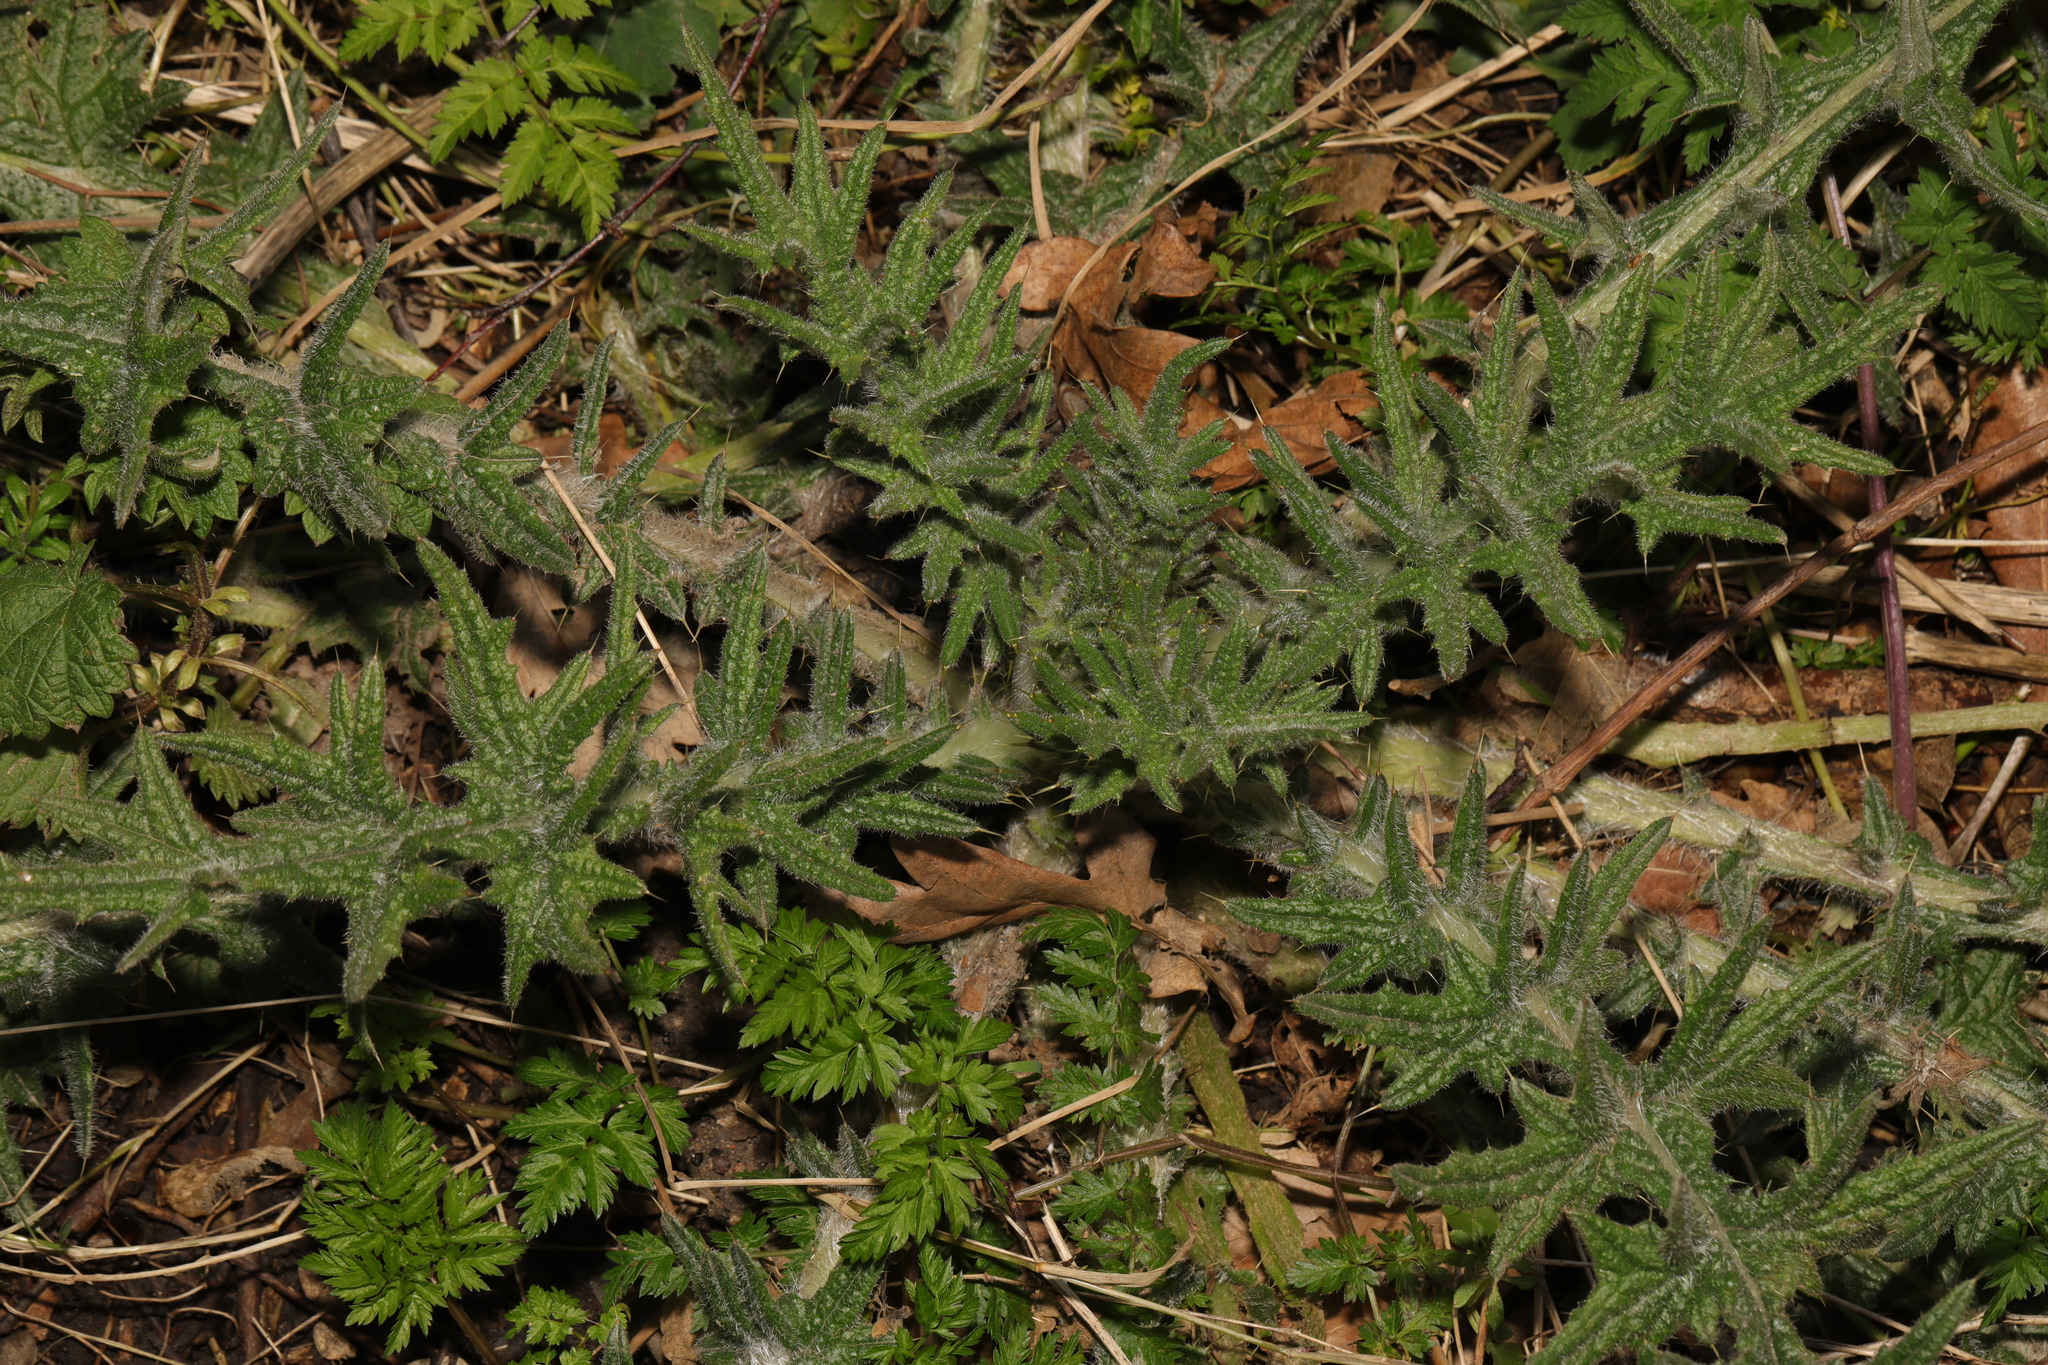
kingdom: Plantae
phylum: Tracheophyta
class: Magnoliopsida
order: Asterales
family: Asteraceae
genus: Cirsium
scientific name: Cirsium vulgare
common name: Bull thistle
